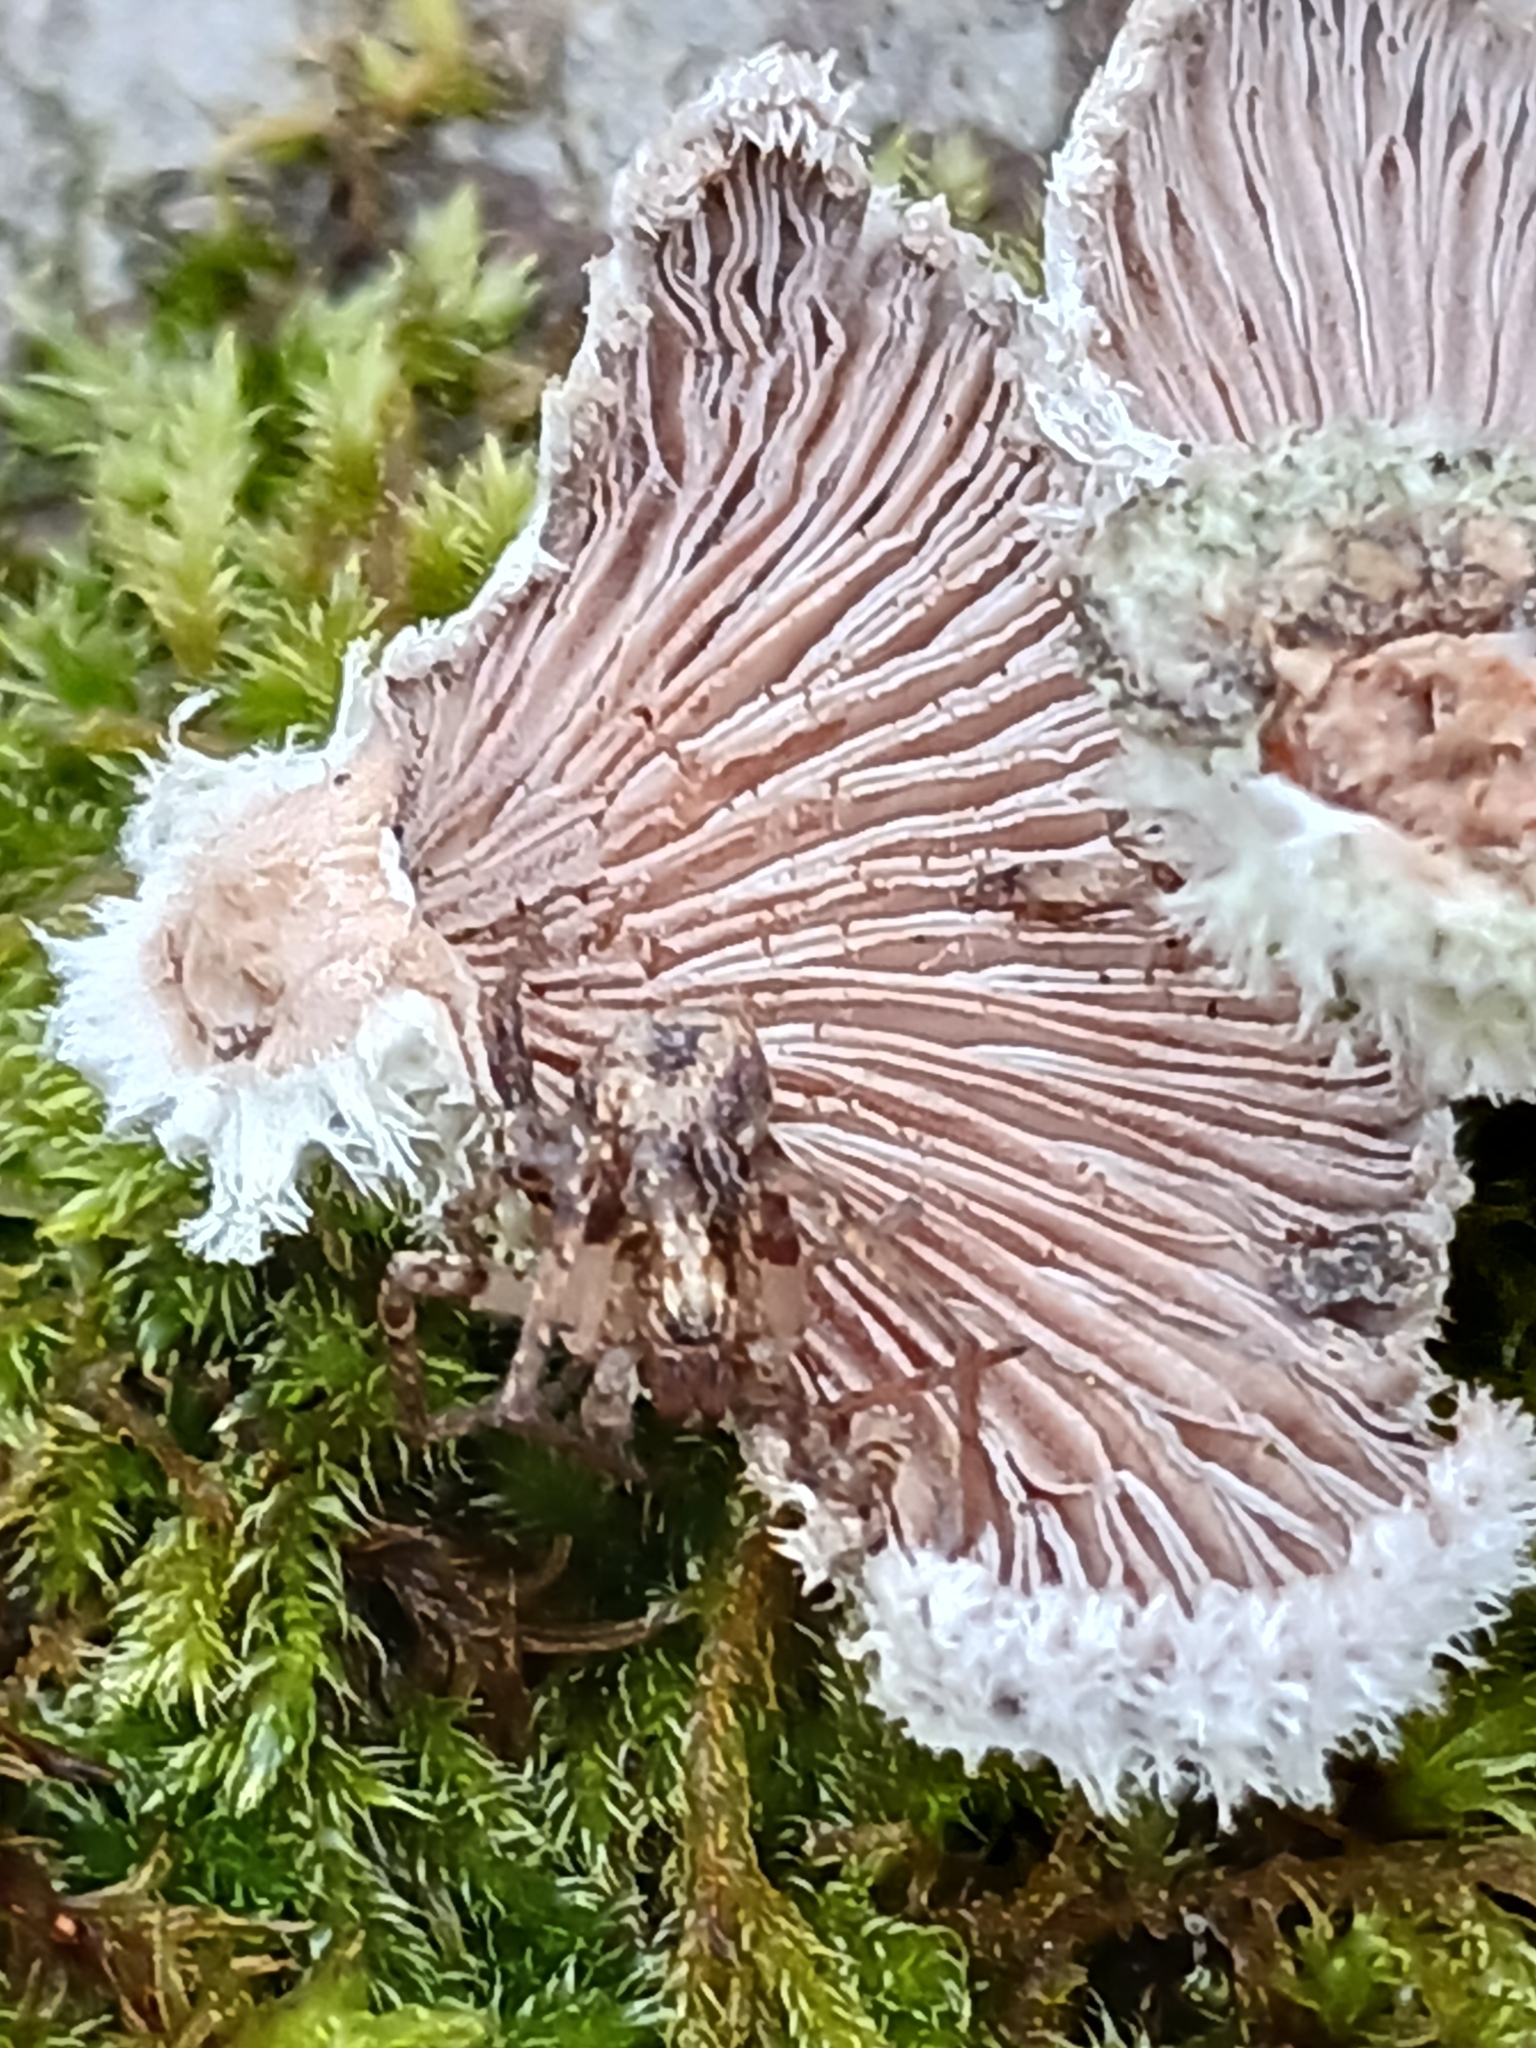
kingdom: Animalia
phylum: Arthropoda
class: Arachnida
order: Araneae
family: Anyphaenidae
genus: Anyphaena
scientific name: Anyphaena accentuata
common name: Buzzing spider
